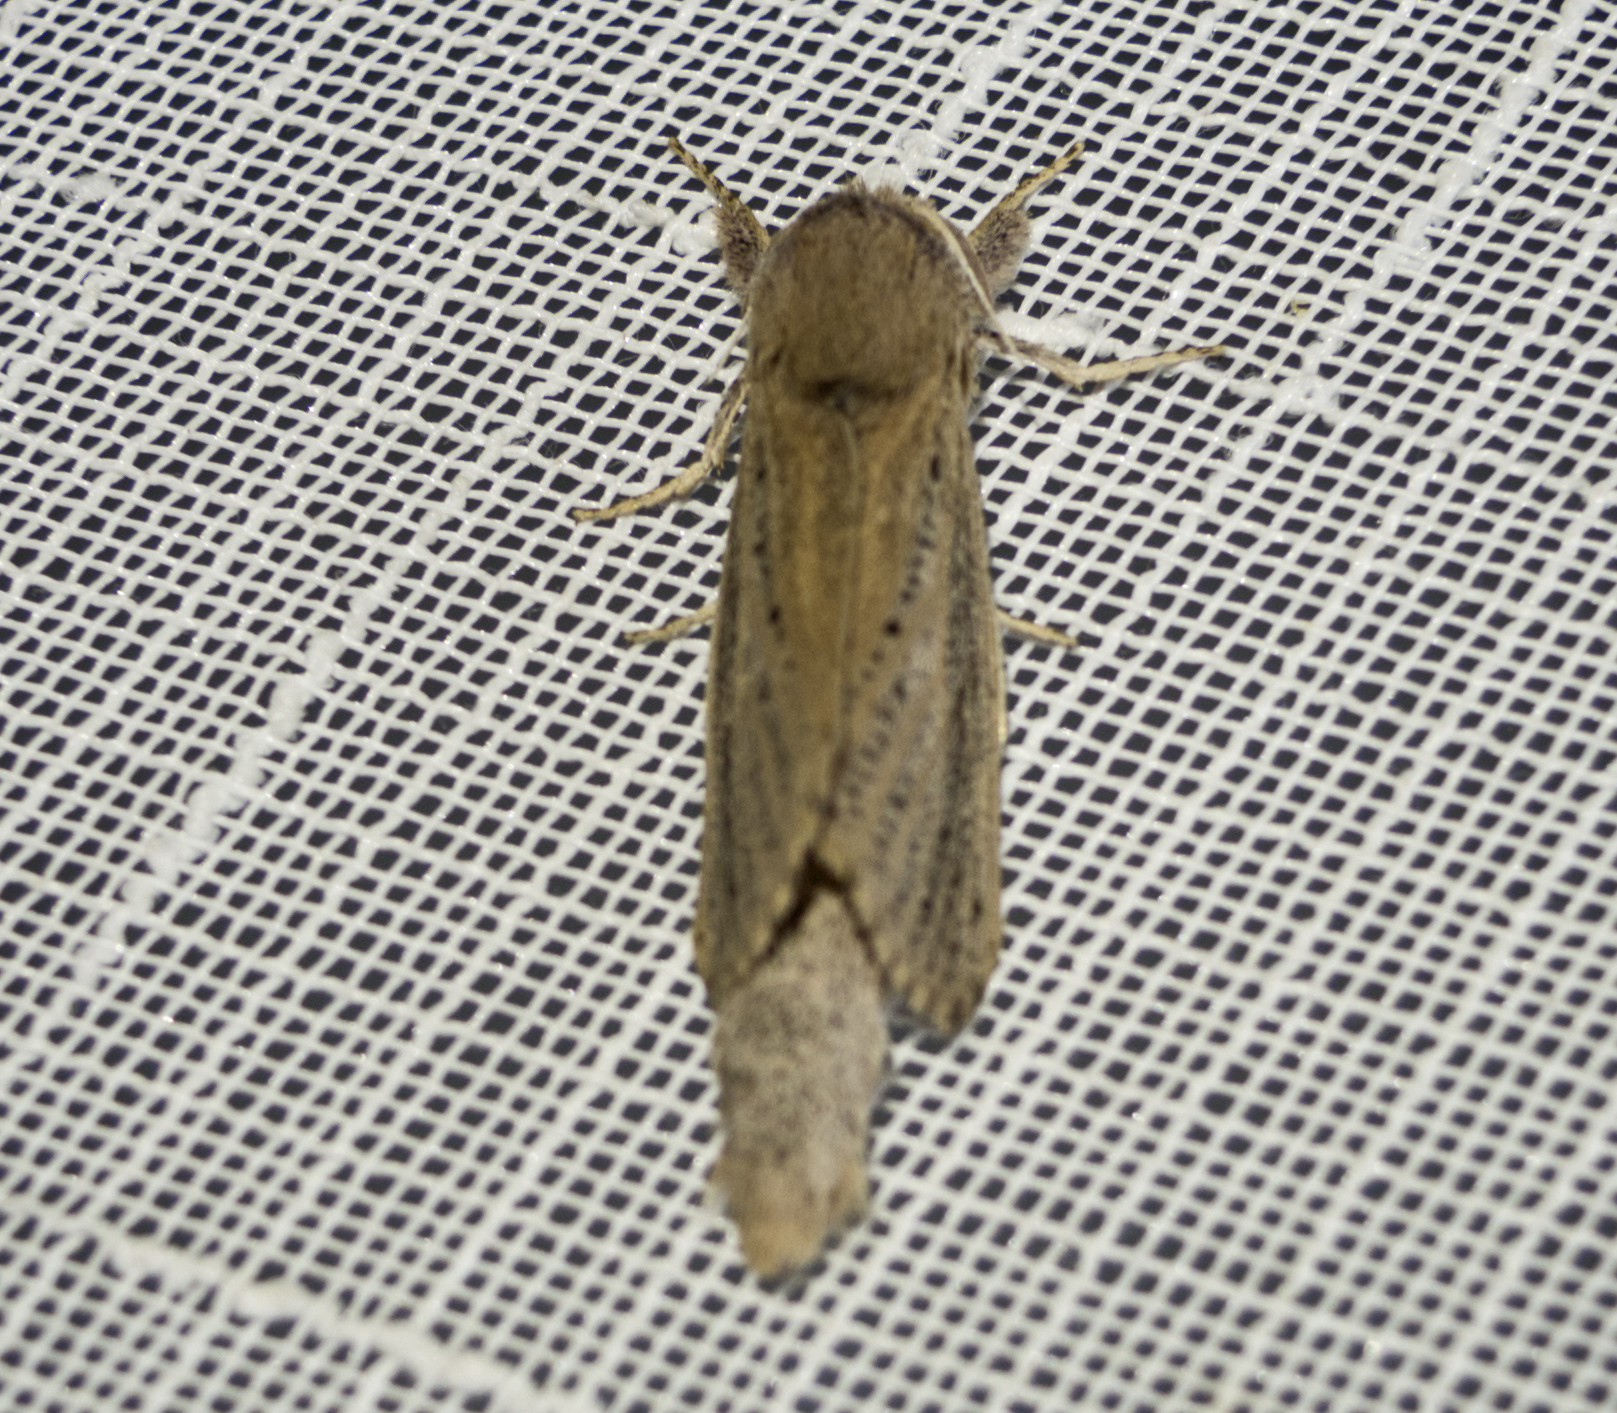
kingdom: Animalia
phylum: Arthropoda
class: Insecta
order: Lepidoptera
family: Cossidae
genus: Phragmataecia
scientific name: Phragmataecia castaneae
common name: Reed leopard
